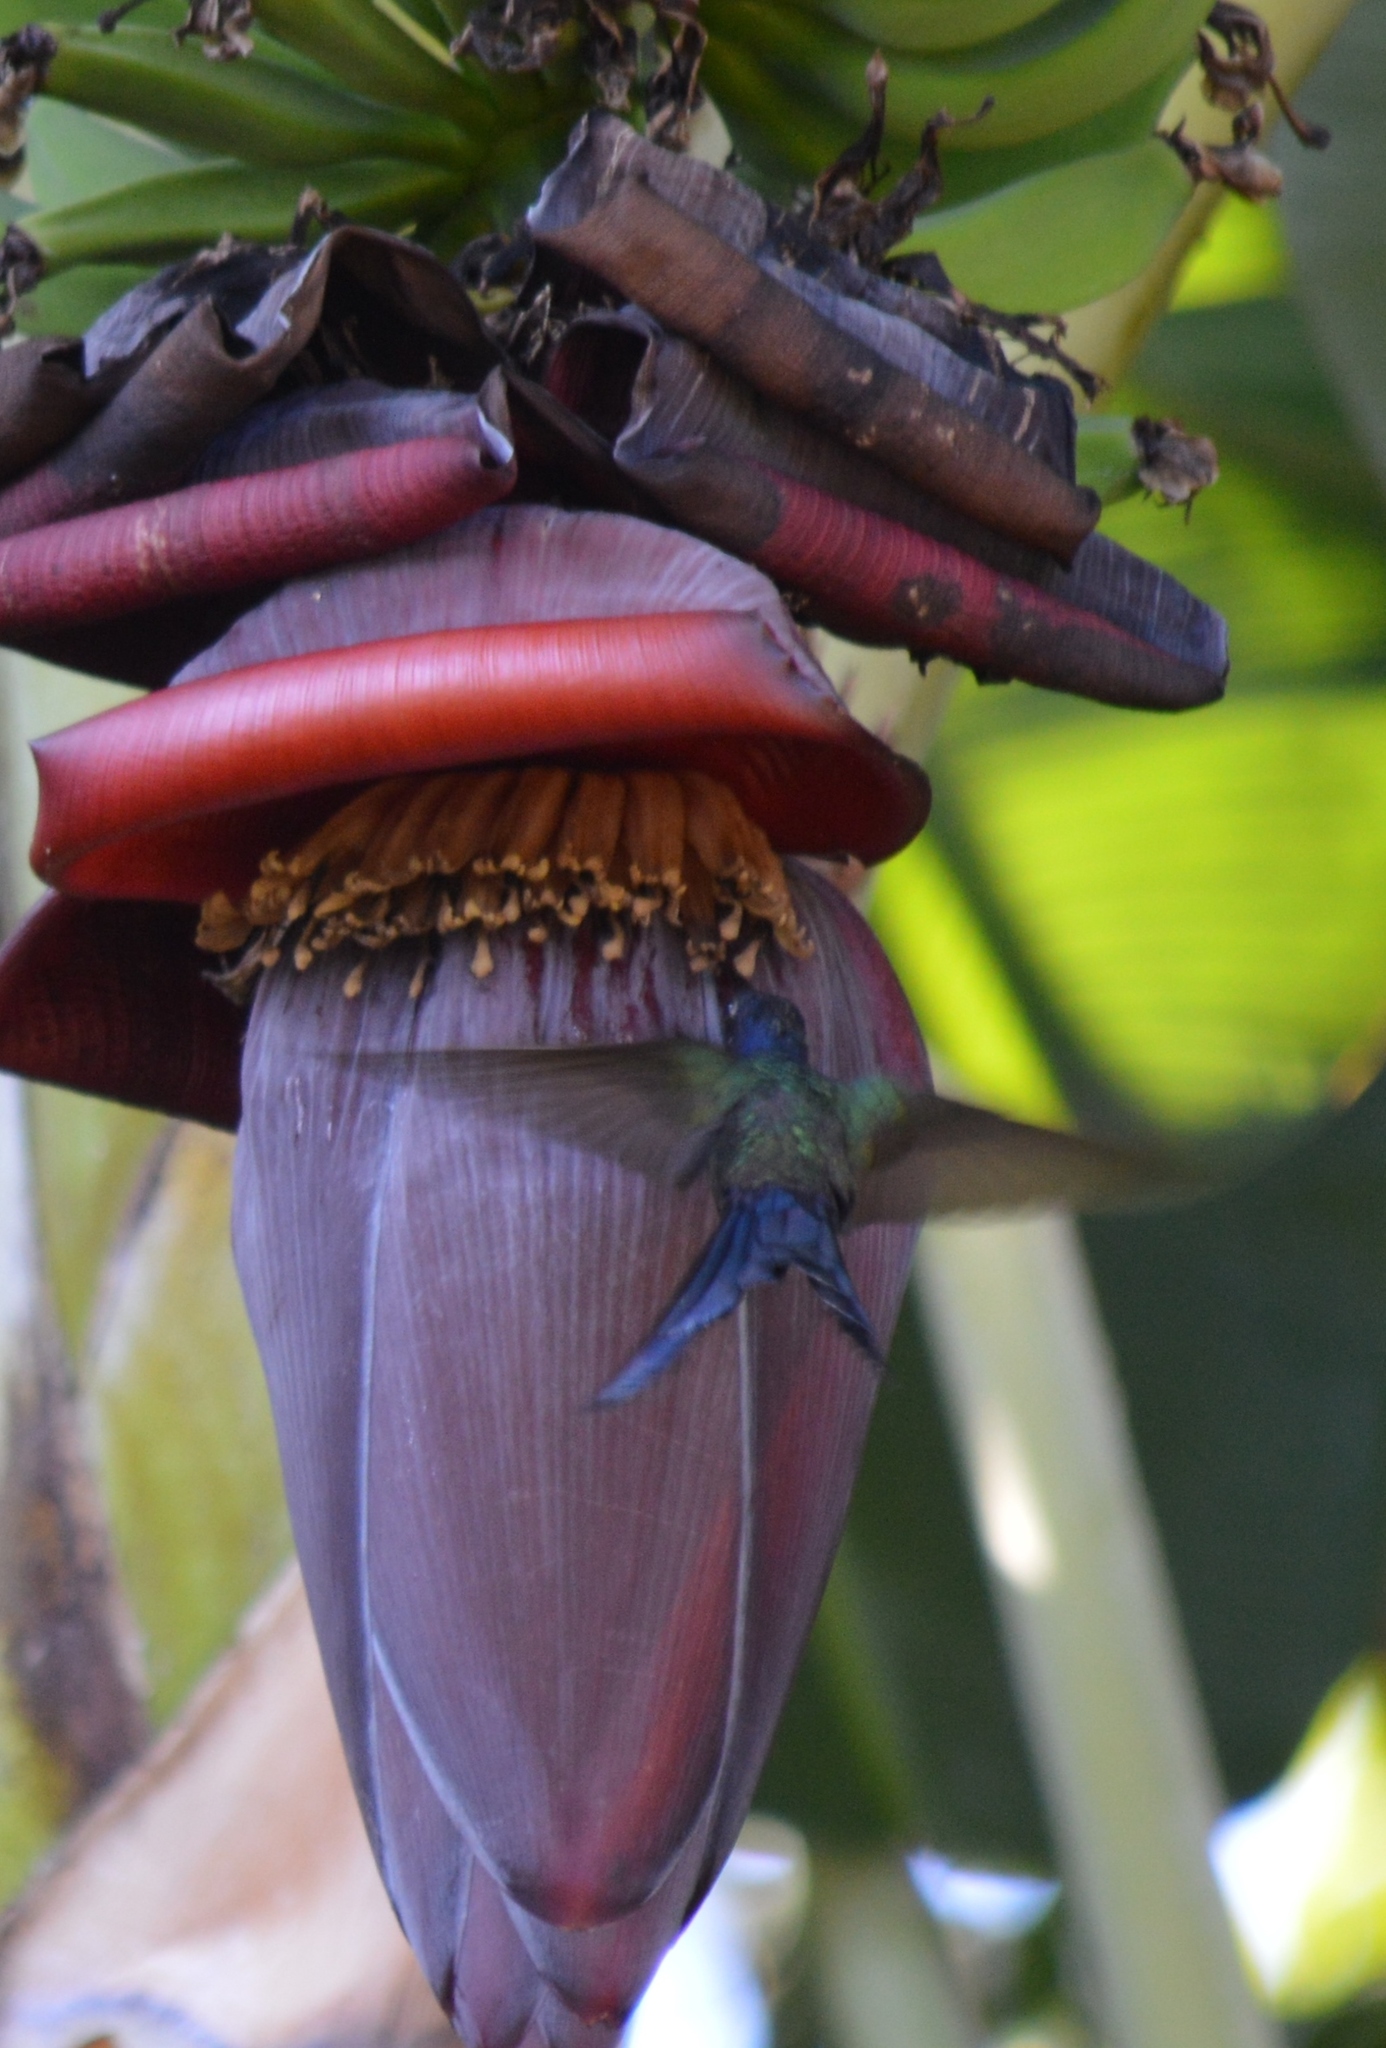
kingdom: Animalia
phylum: Chordata
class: Aves
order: Apodiformes
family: Trochilidae
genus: Eupetomena
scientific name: Eupetomena macroura
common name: Swallow-tailed hummingbird
